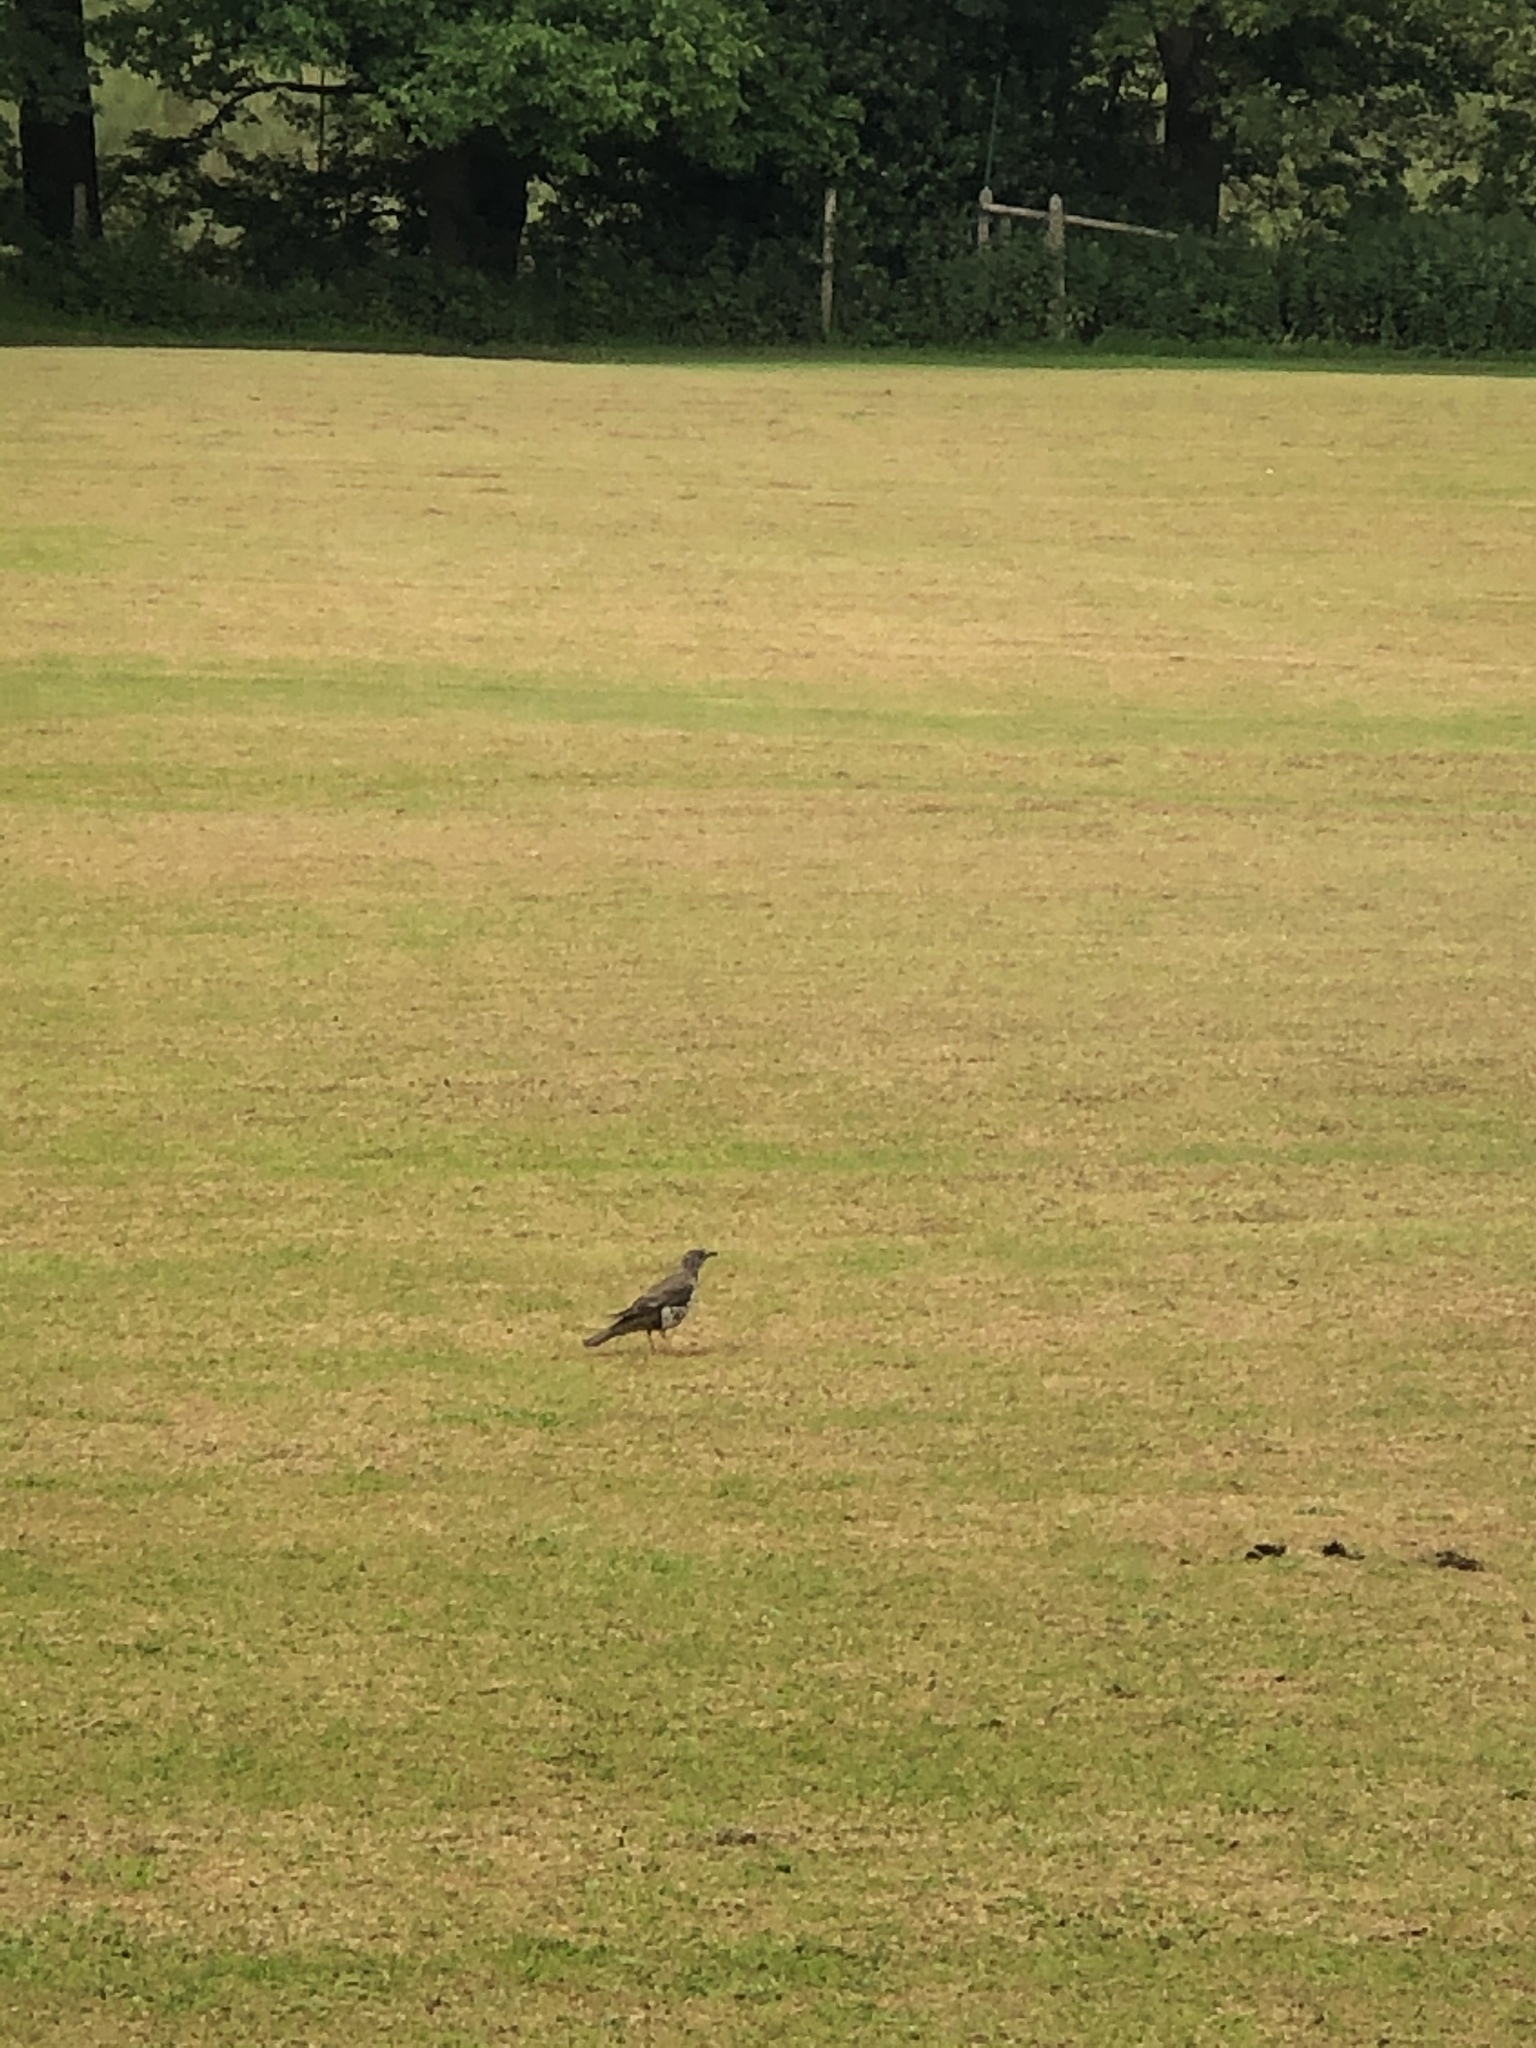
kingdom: Animalia
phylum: Chordata
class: Aves
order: Passeriformes
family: Turdidae
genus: Turdus
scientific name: Turdus viscivorus
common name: Mistle thrush
